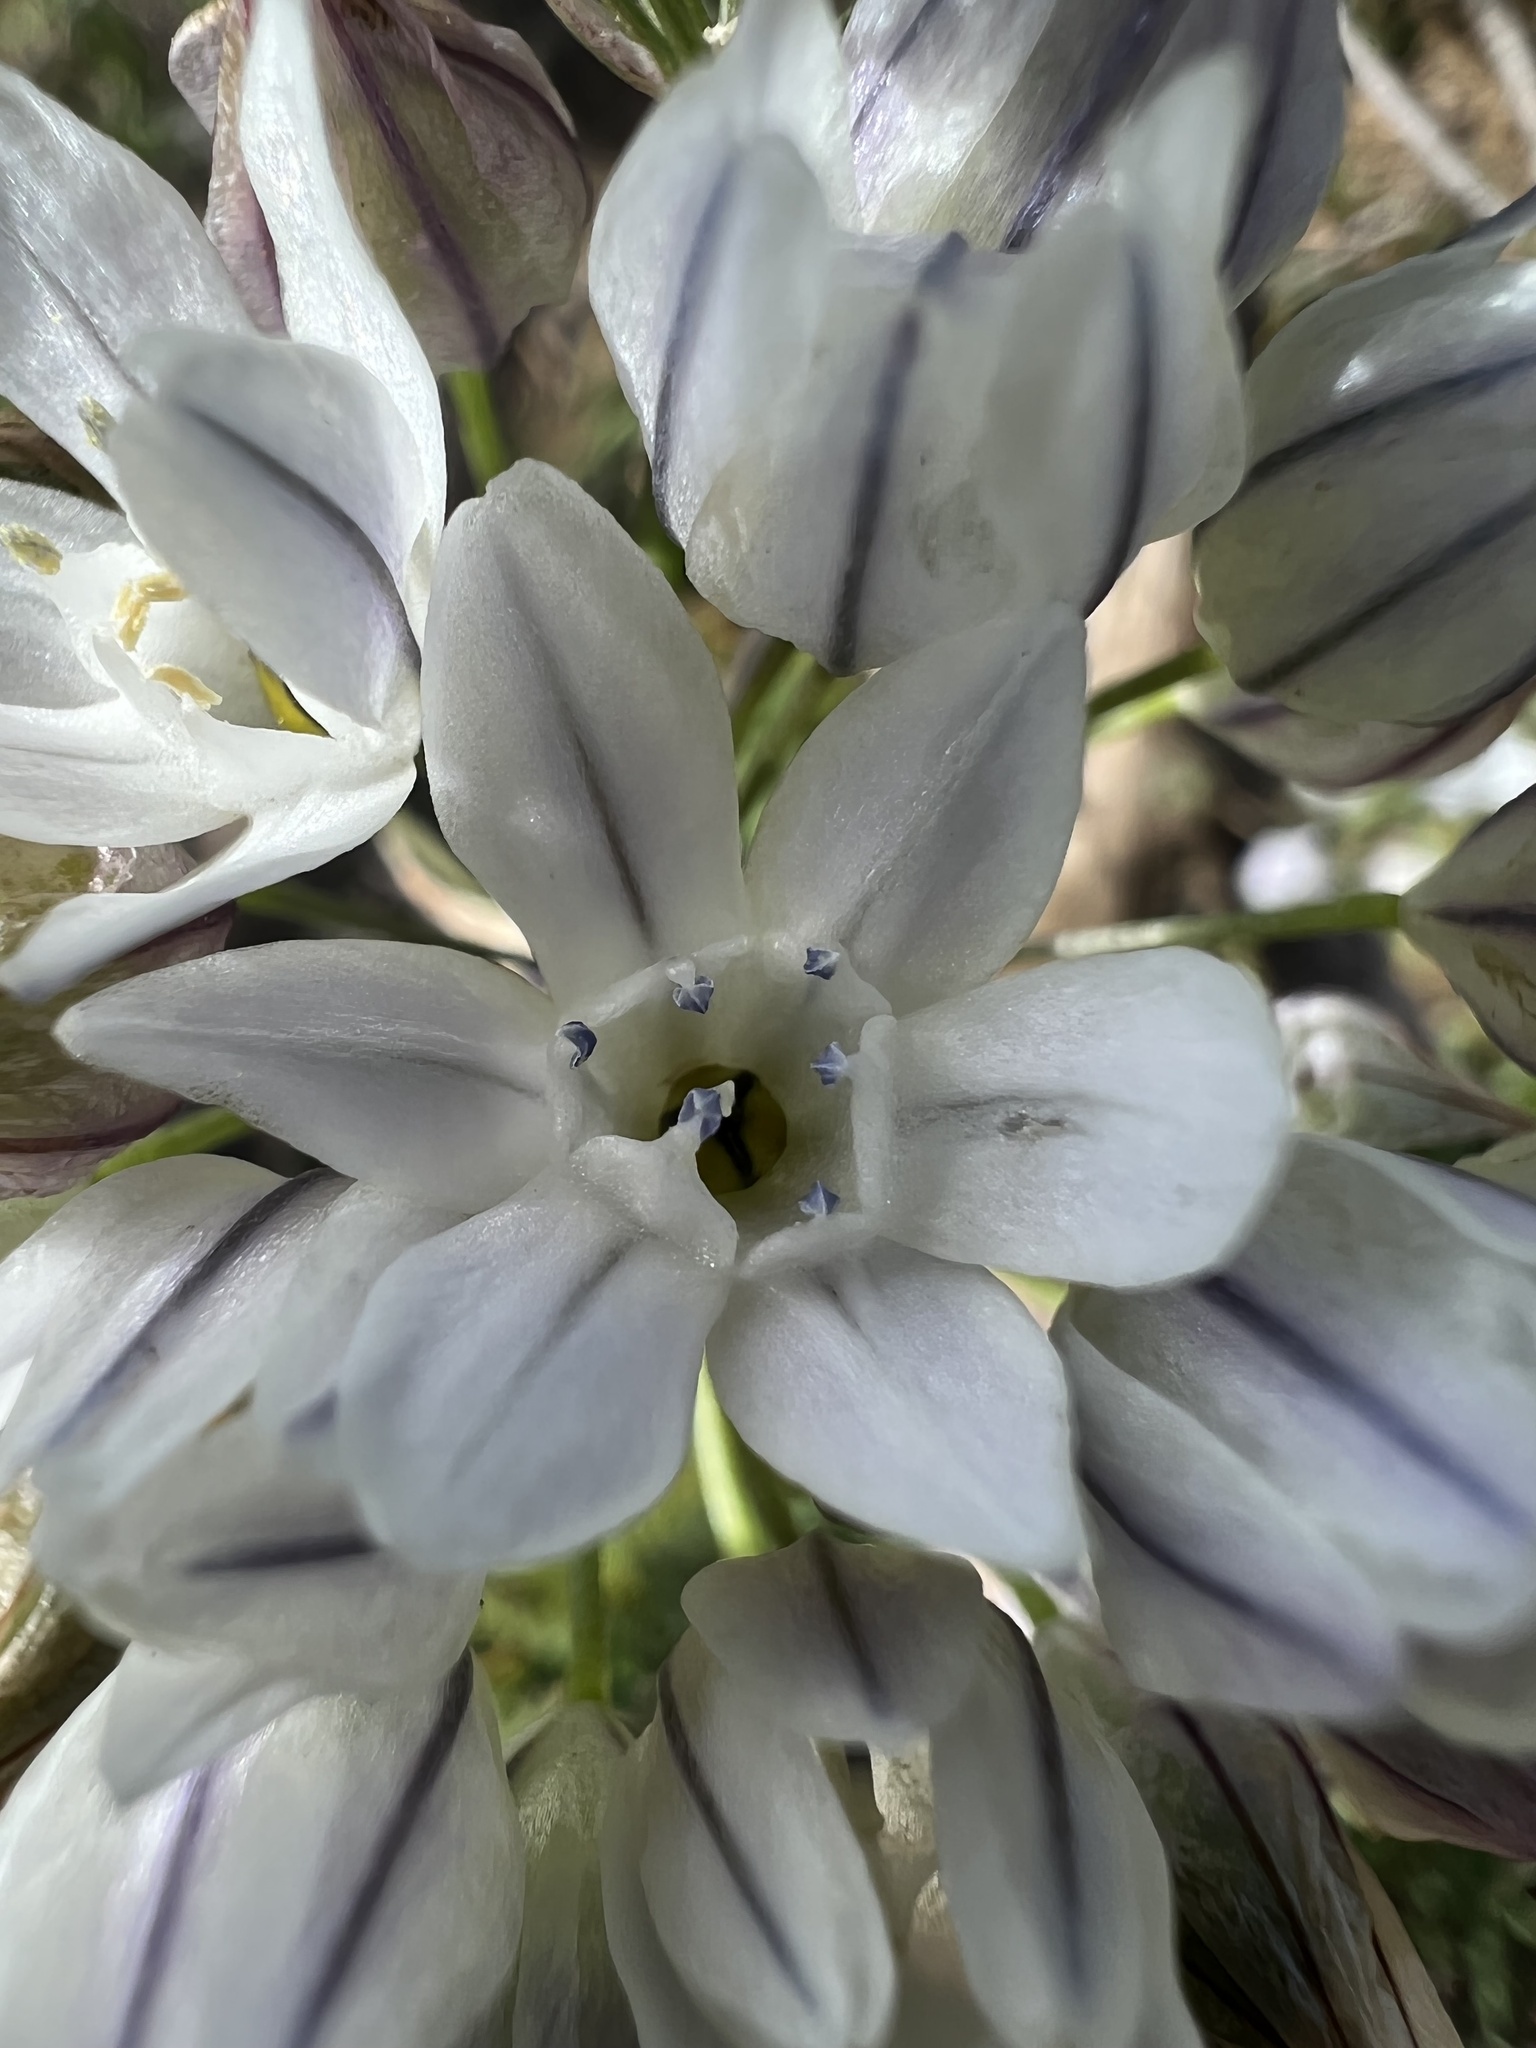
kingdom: Plantae
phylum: Tracheophyta
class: Liliopsida
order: Asparagales
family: Asparagaceae
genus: Triteleia
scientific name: Triteleia hyacinthina
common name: White brodiaea
